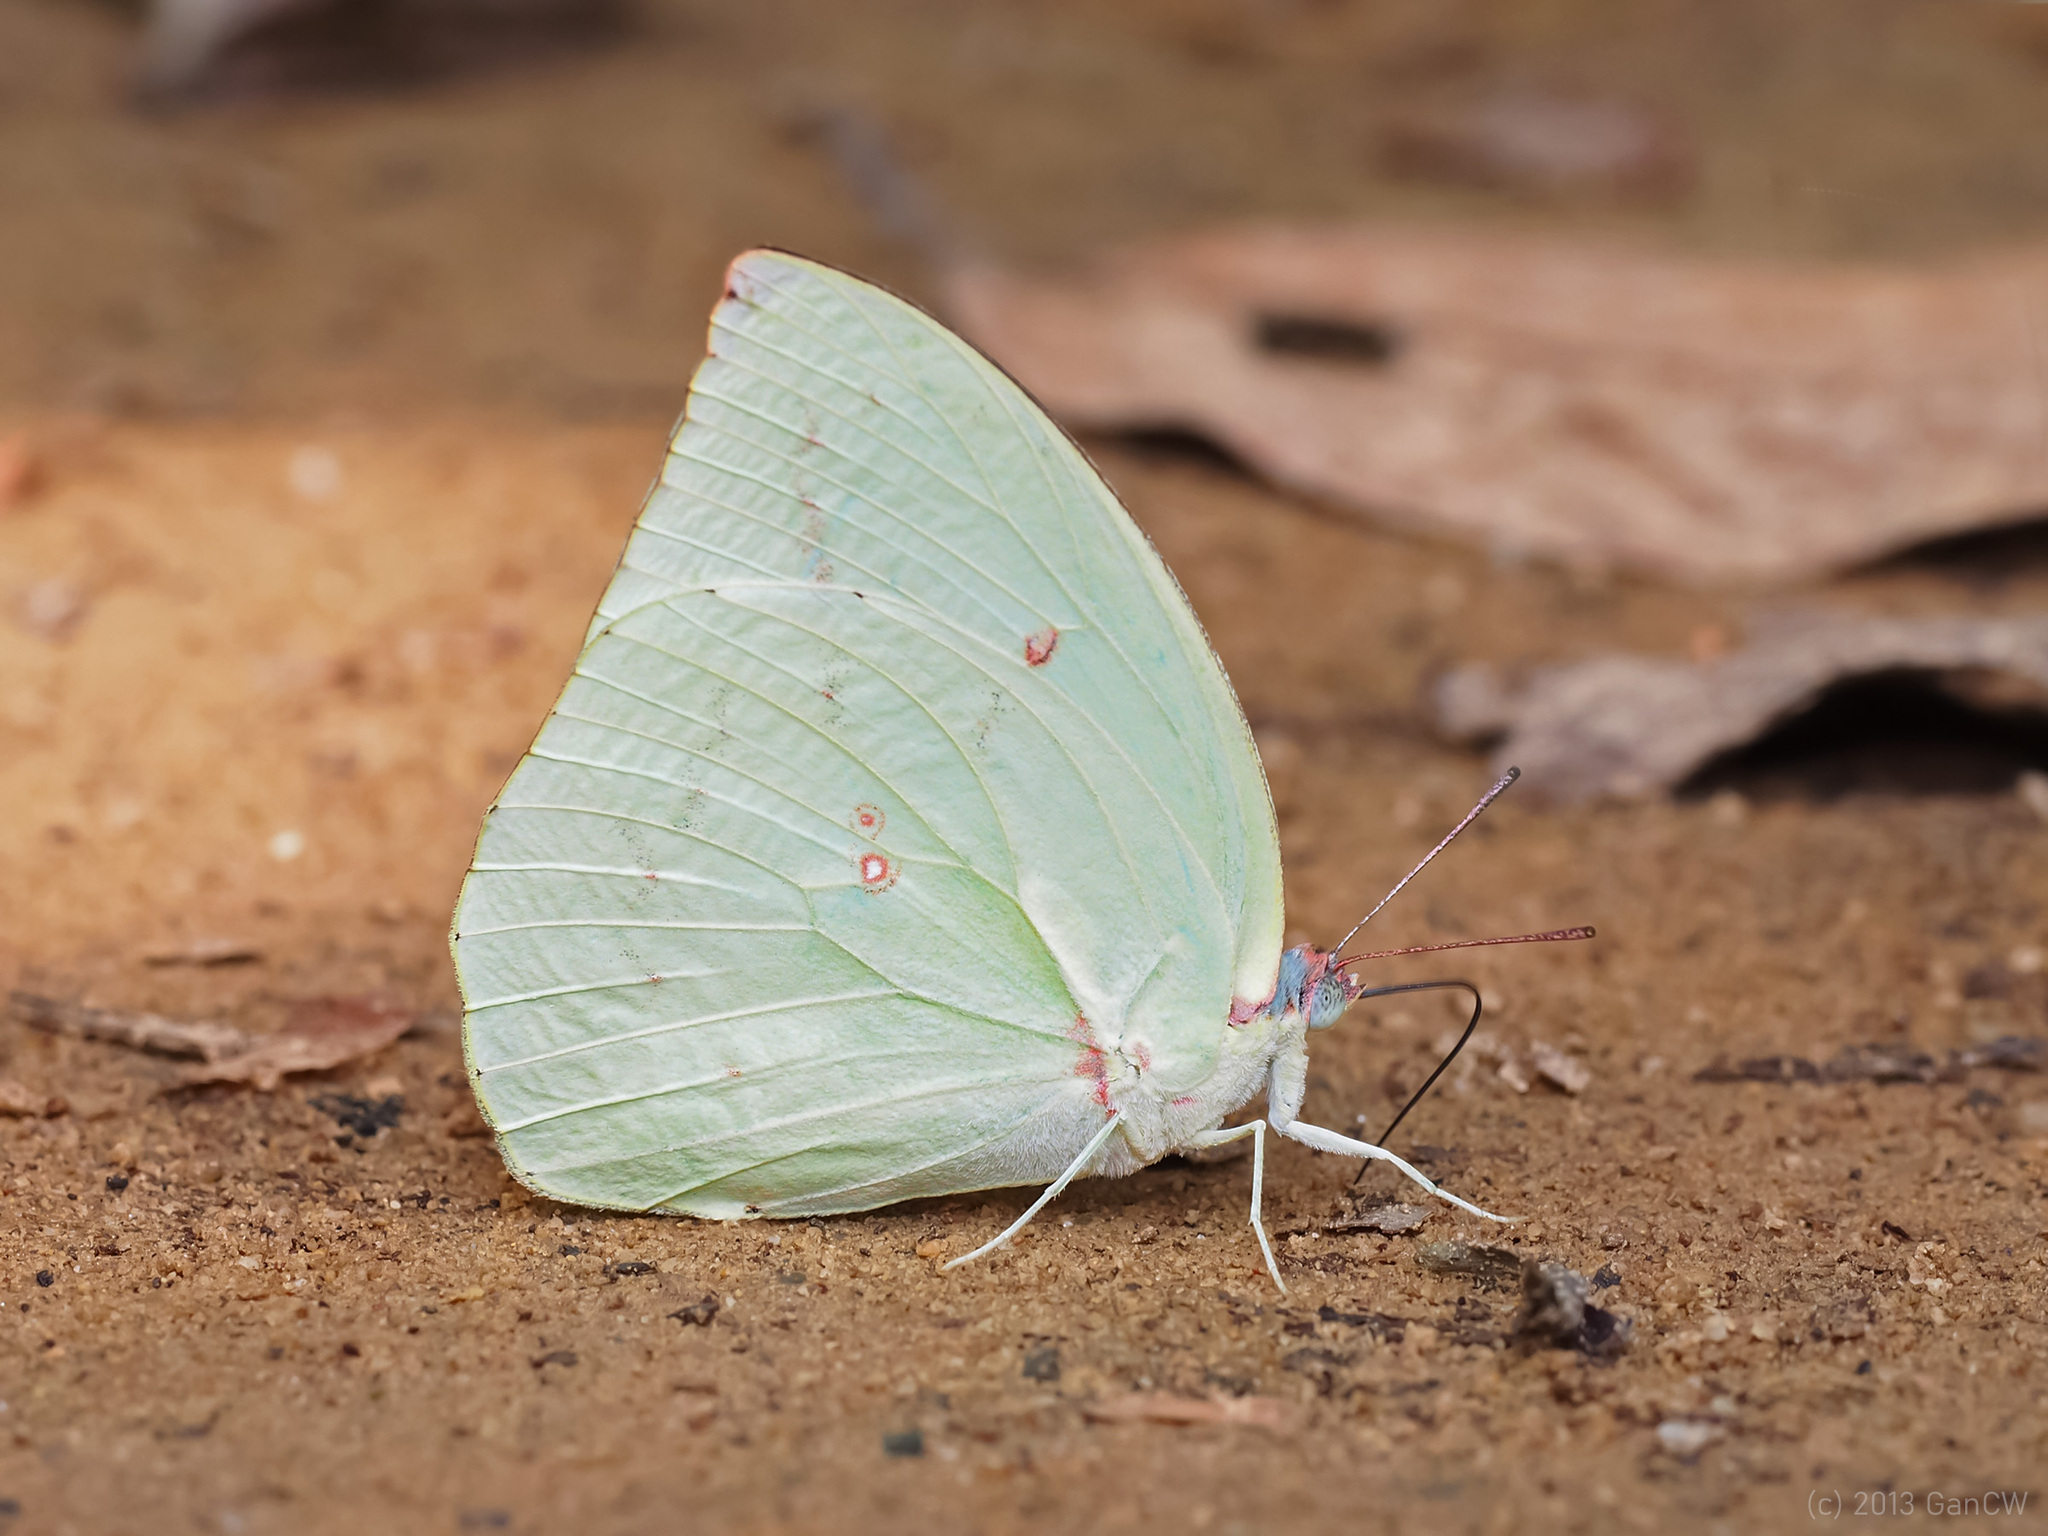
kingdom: Animalia
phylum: Arthropoda
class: Insecta
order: Lepidoptera
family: Pieridae
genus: Catopsilia
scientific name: Catopsilia pomona
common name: Common emigrant
